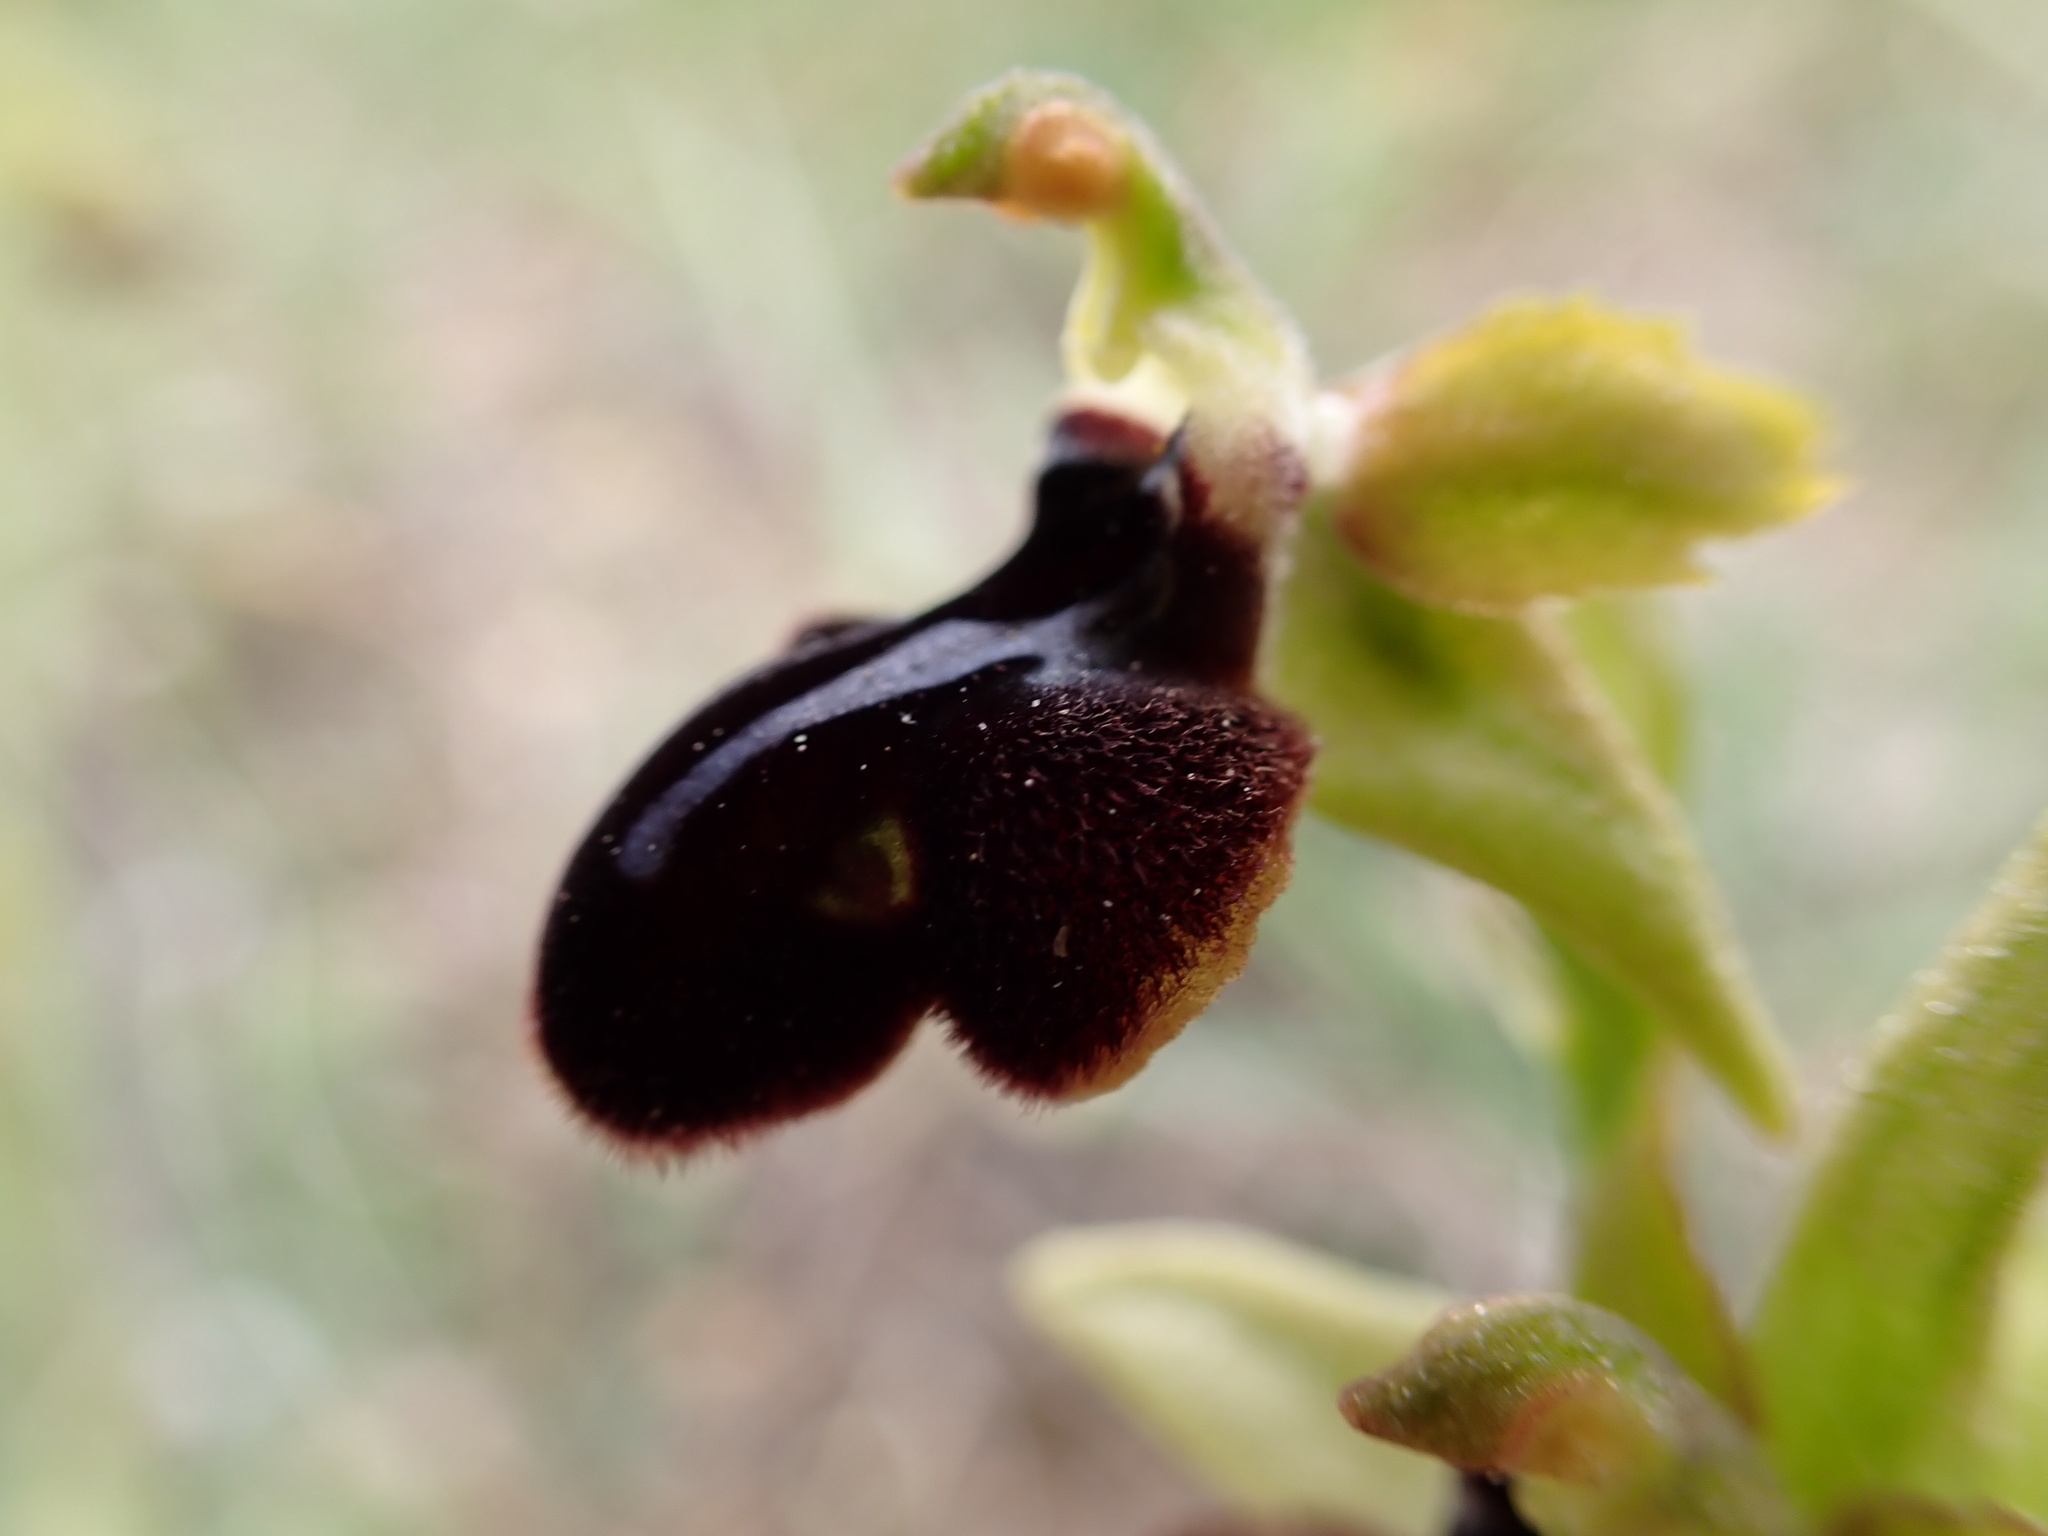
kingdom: Plantae
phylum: Tracheophyta
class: Liliopsida
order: Asparagales
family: Orchidaceae
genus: Ophrys
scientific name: Ophrys sphegodes
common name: Early spider-orchid
